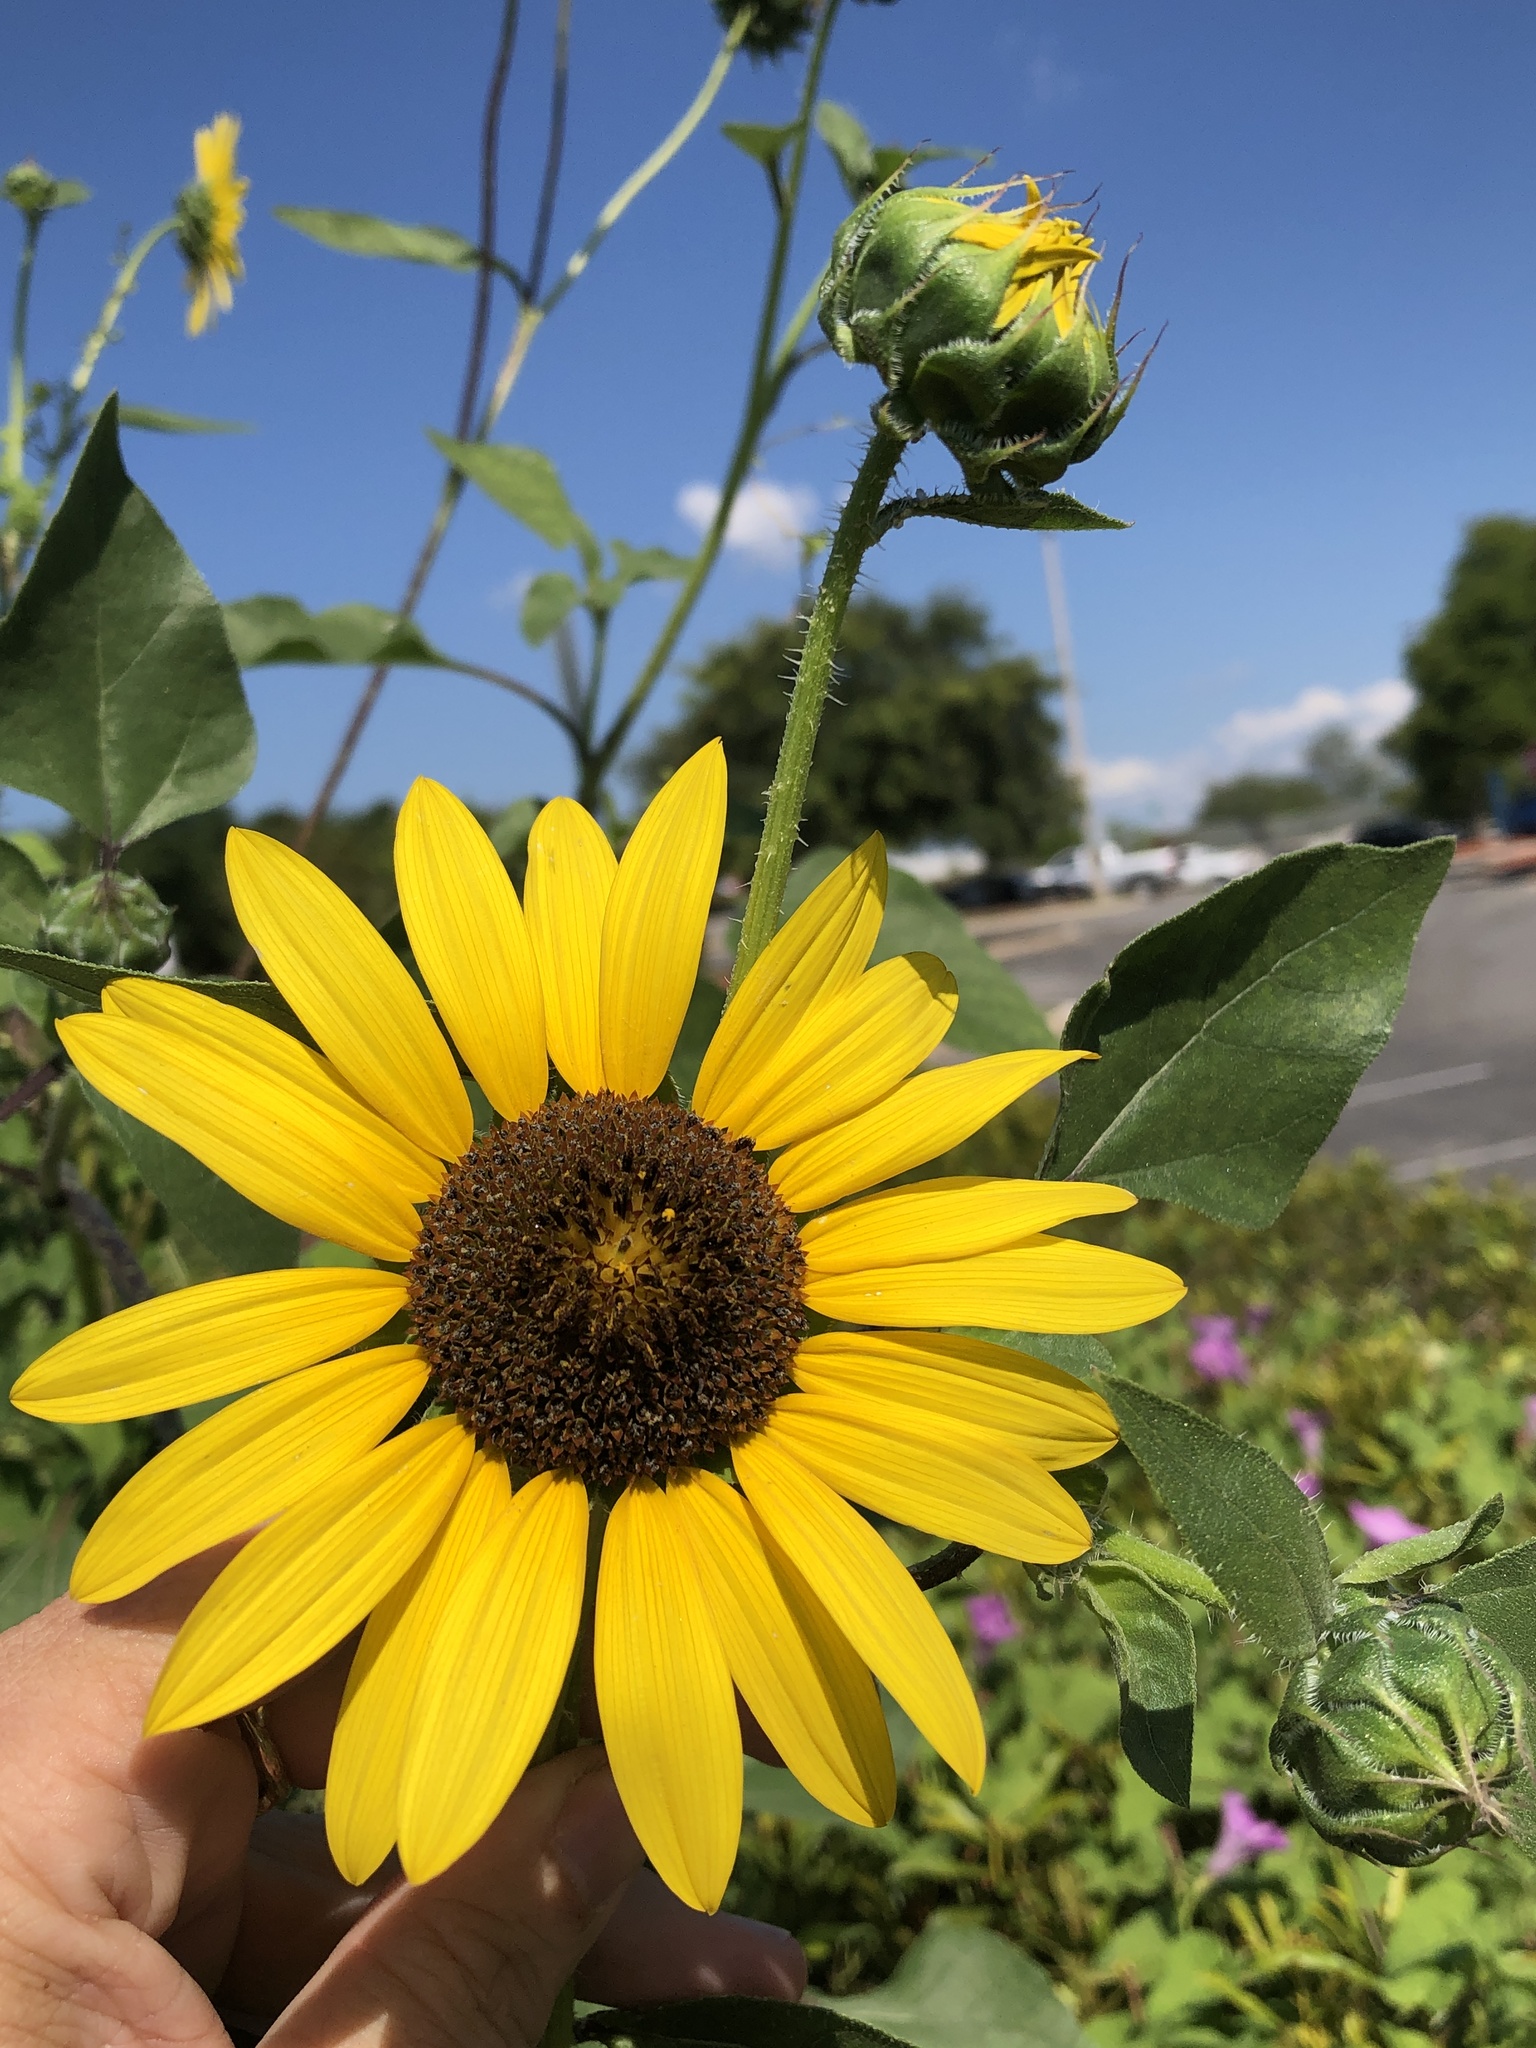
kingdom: Plantae
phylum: Tracheophyta
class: Magnoliopsida
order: Asterales
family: Asteraceae
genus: Helianthus
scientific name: Helianthus annuus
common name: Sunflower
